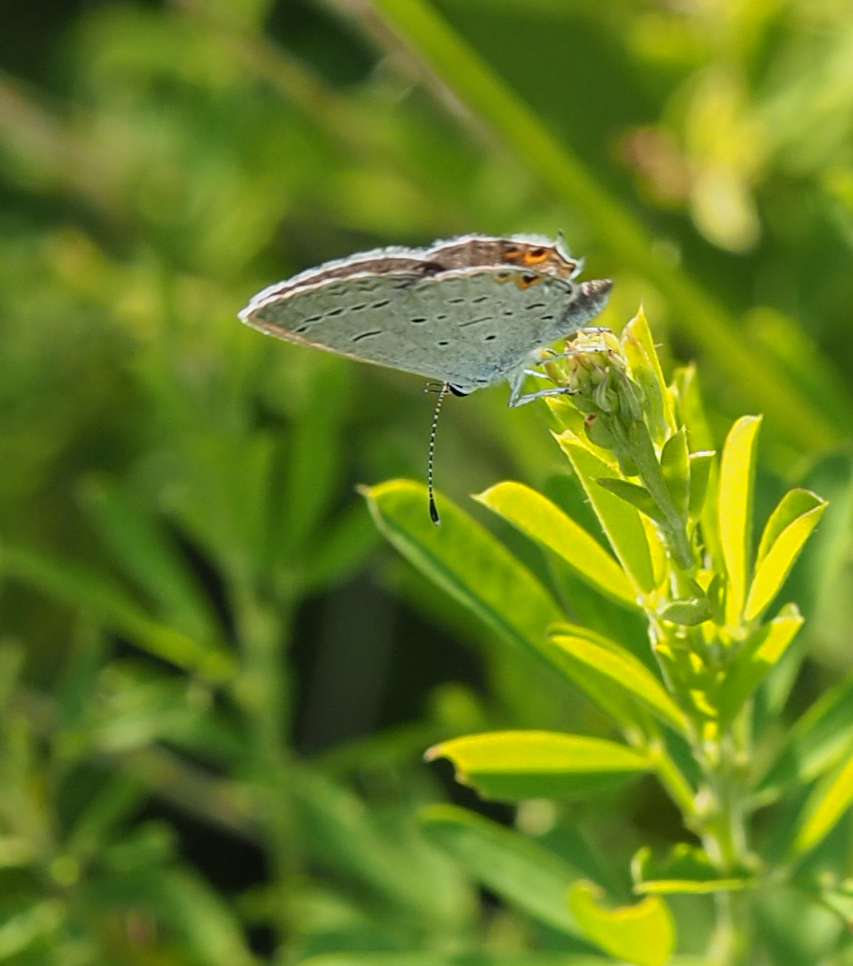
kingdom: Animalia
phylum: Arthropoda
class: Insecta
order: Lepidoptera
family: Lycaenidae
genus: Elkalyce
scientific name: Elkalyce comyntas
